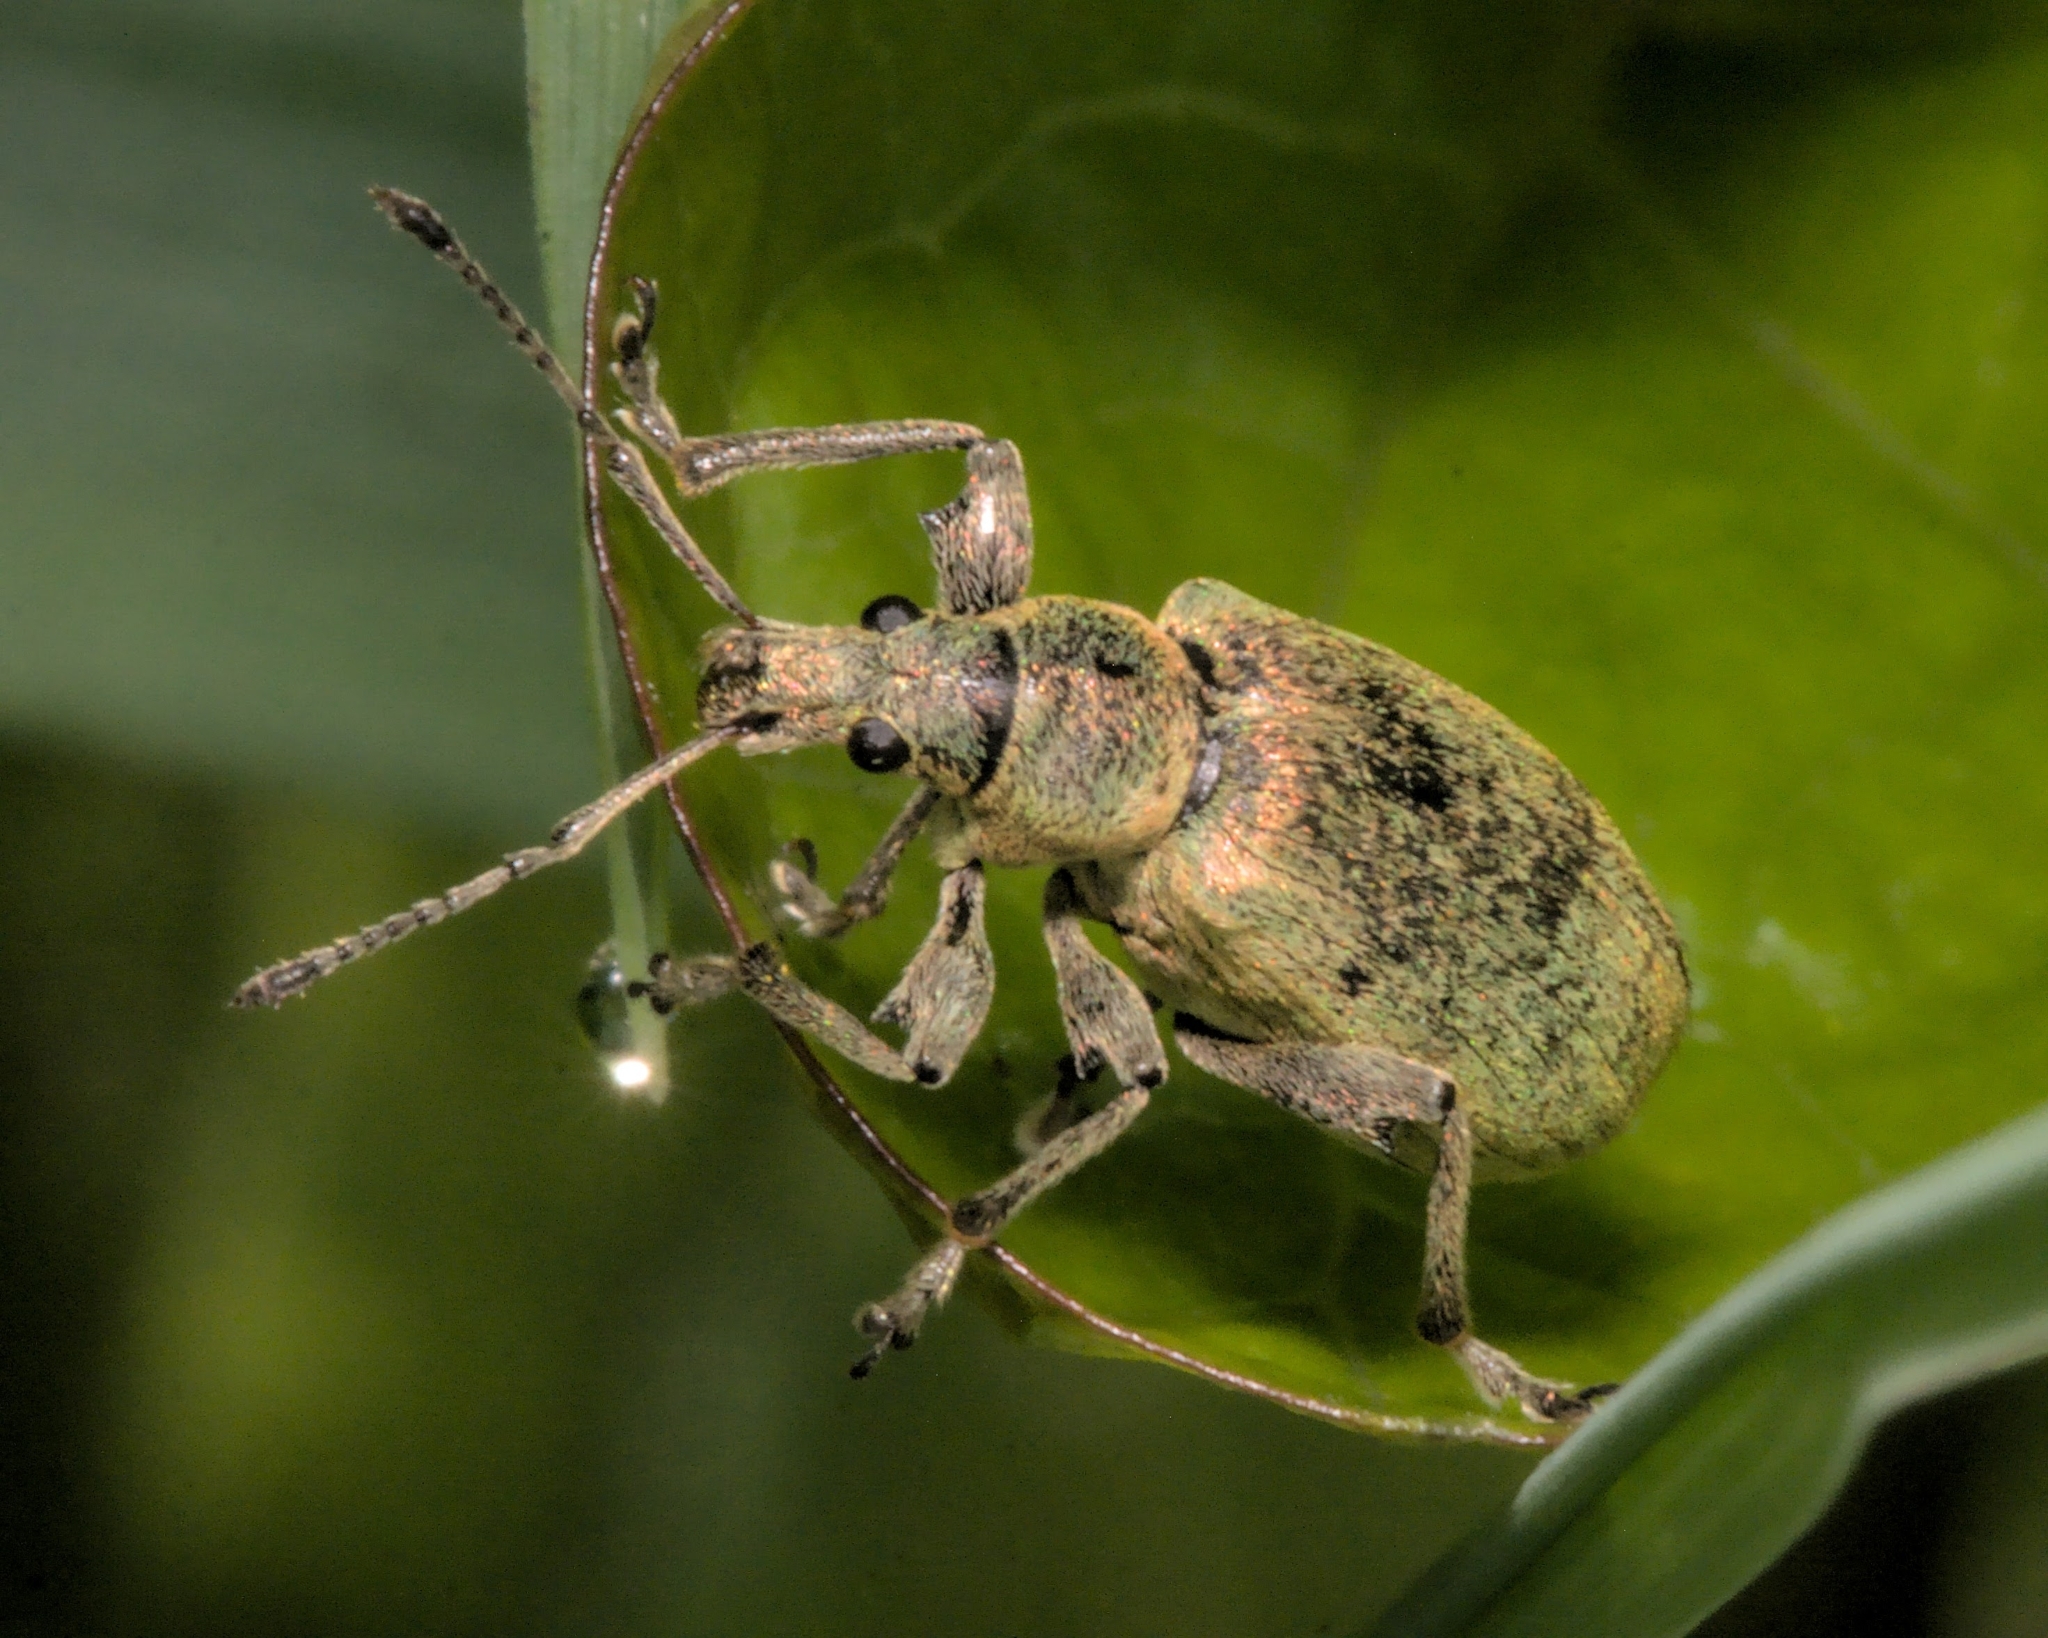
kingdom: Animalia
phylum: Arthropoda
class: Insecta
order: Coleoptera
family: Curculionidae
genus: Phyllobius
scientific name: Phyllobius pomaceus
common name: Green nettle weevil
